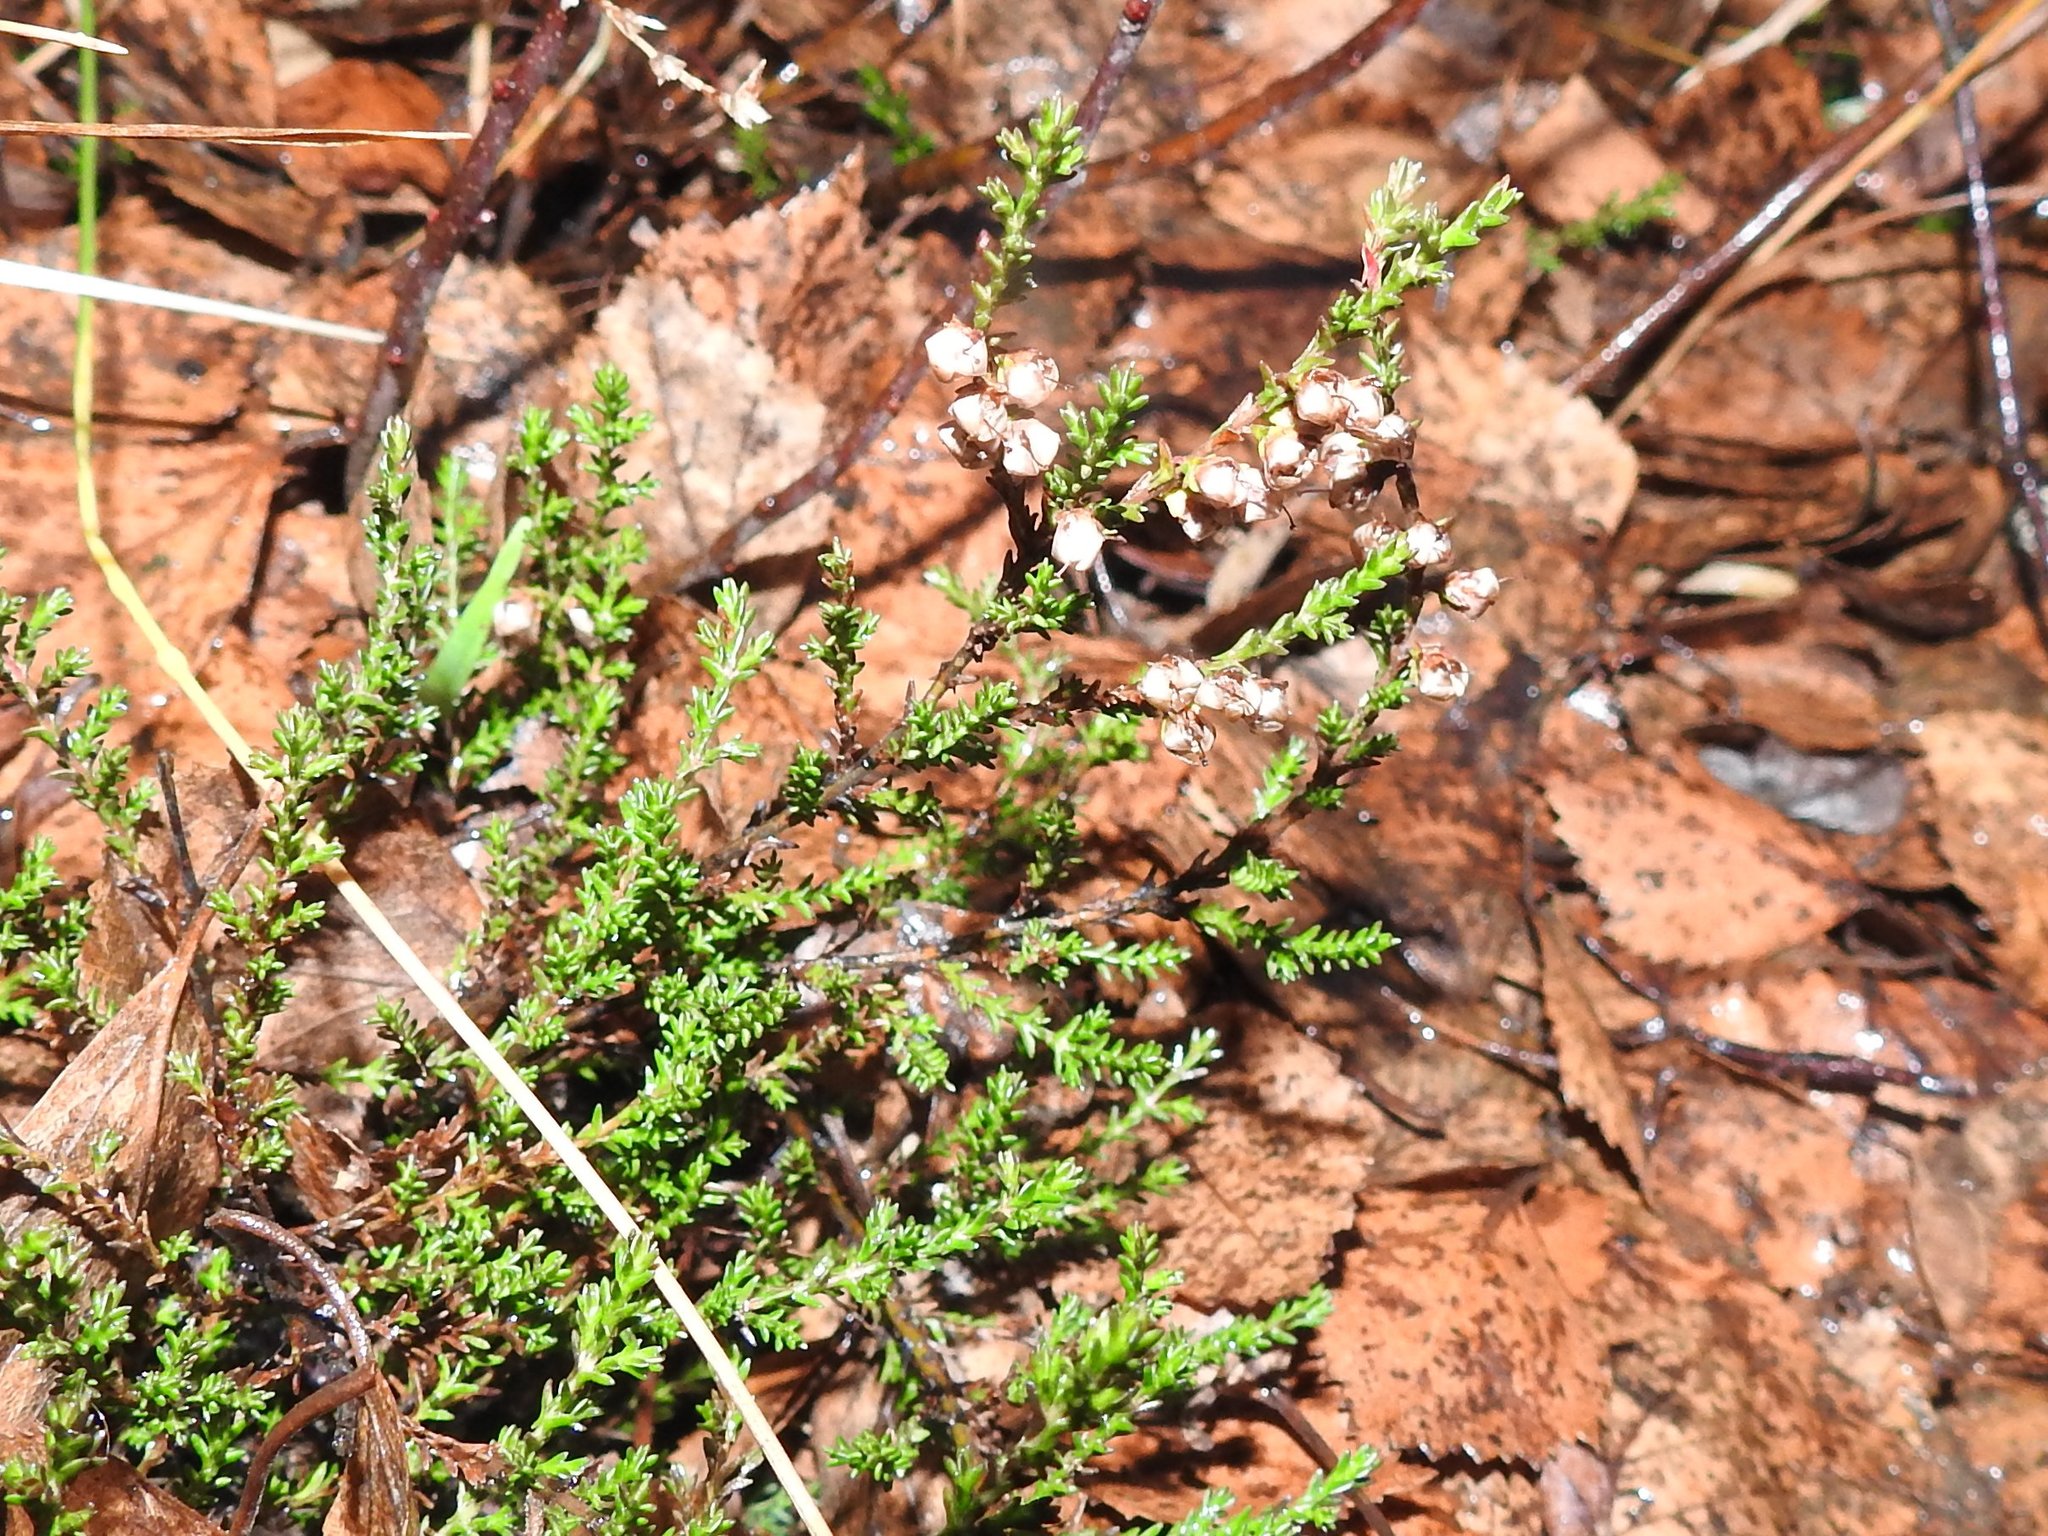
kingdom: Plantae
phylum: Tracheophyta
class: Magnoliopsida
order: Ericales
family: Ericaceae
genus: Calluna
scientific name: Calluna vulgaris
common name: Heather
